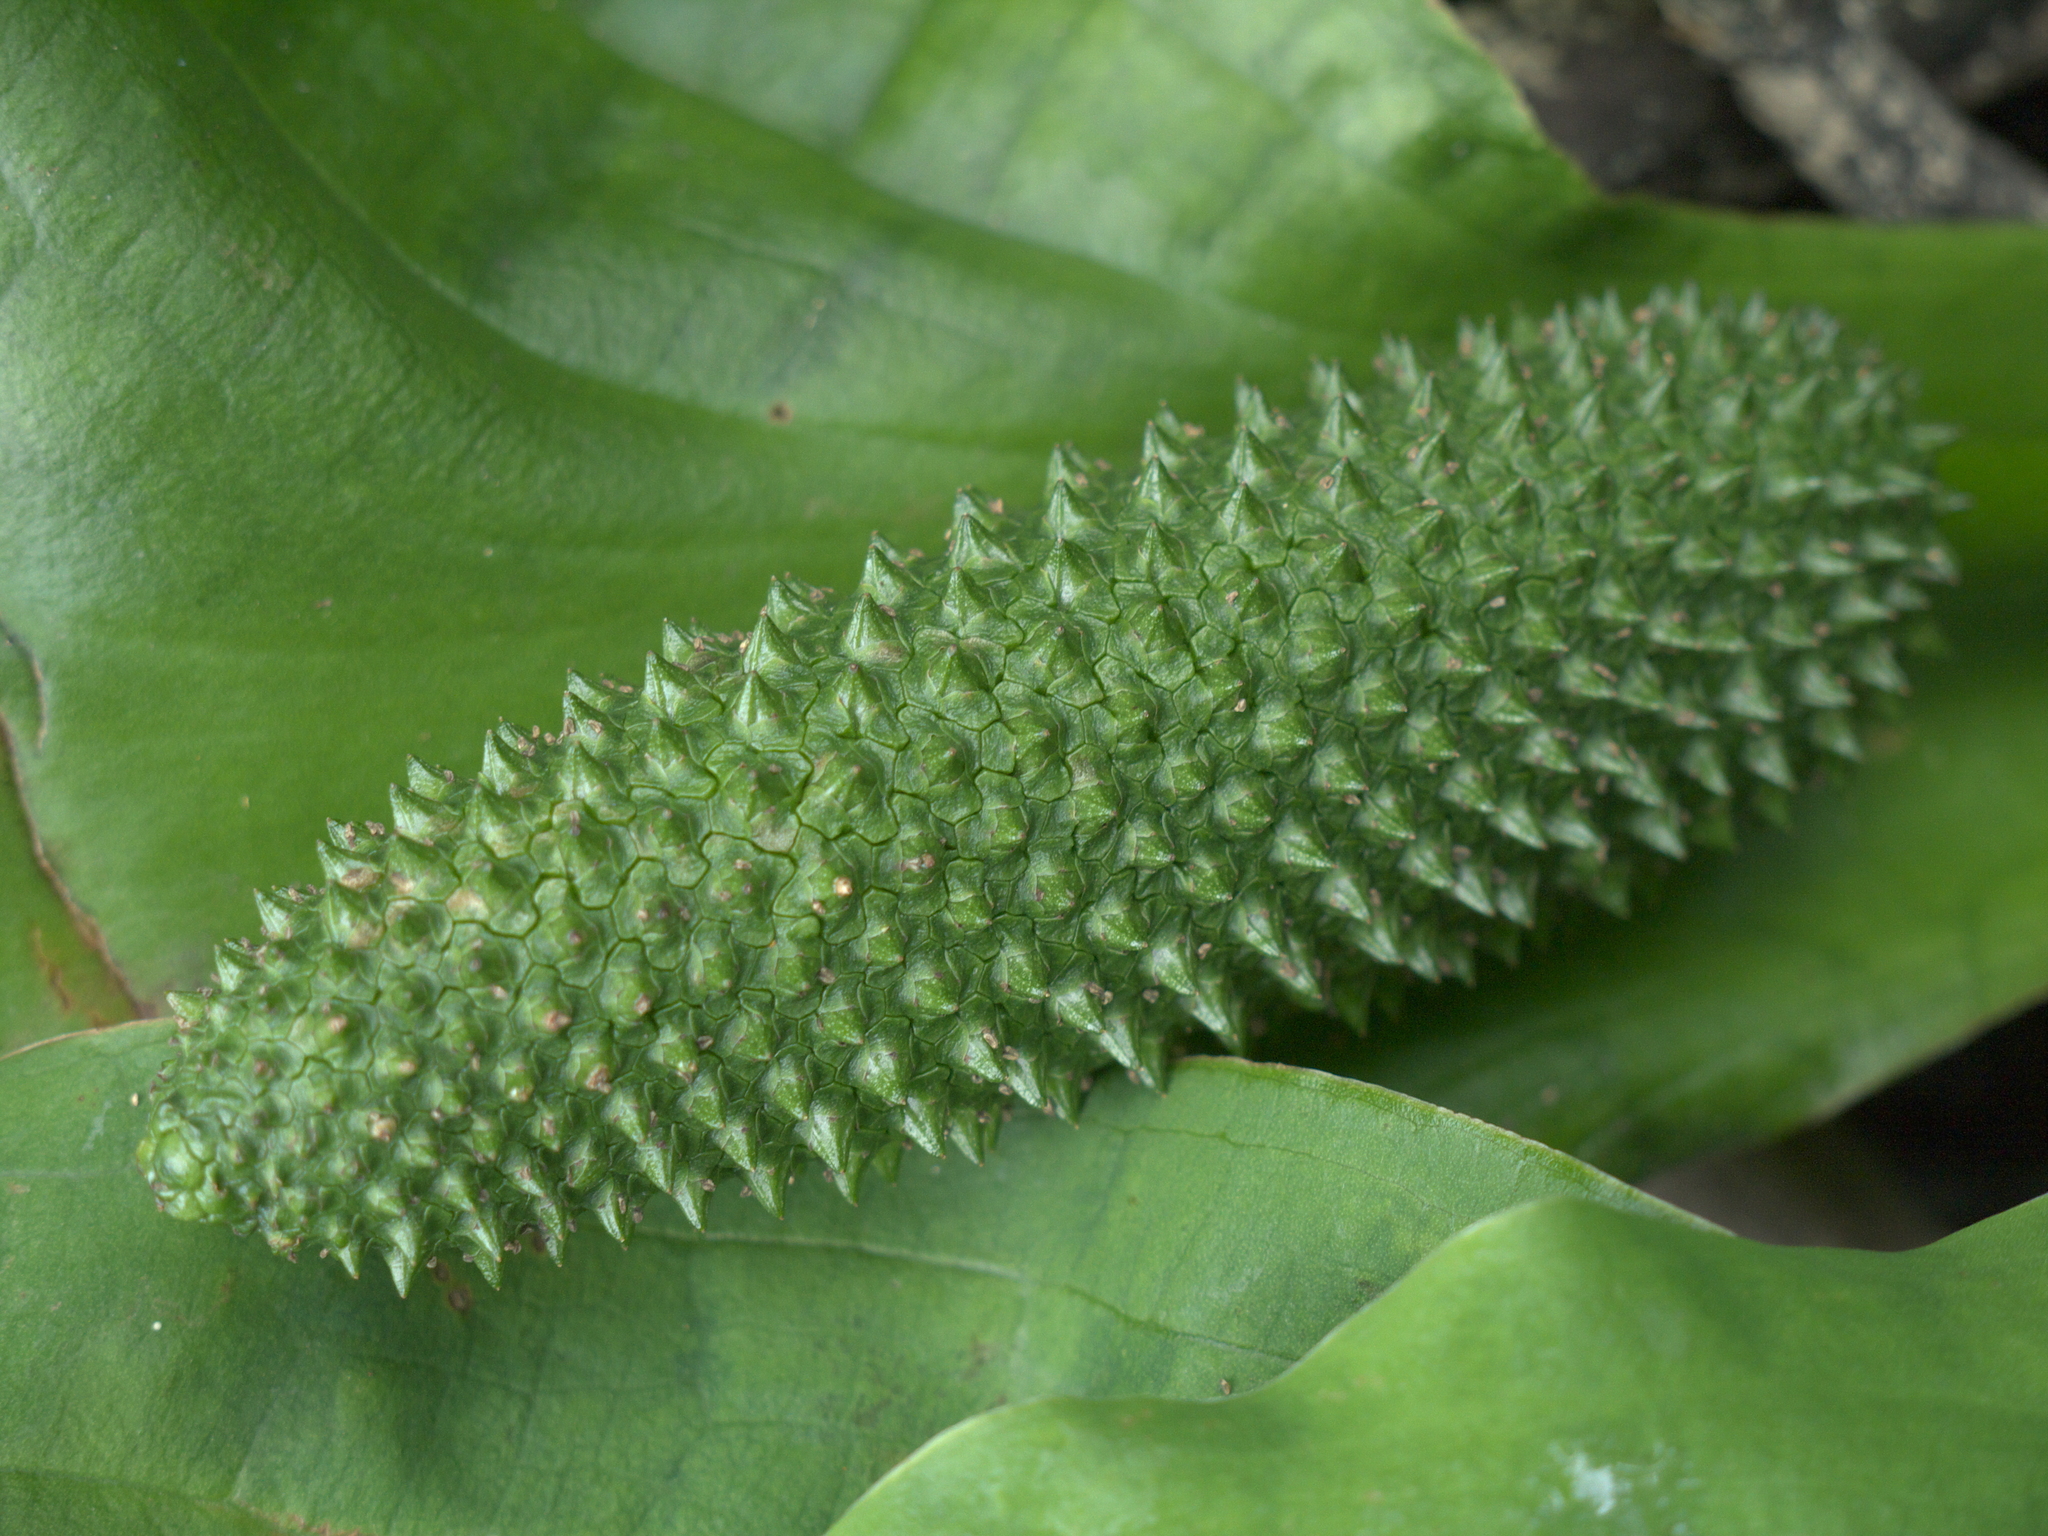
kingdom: Plantae
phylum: Tracheophyta
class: Liliopsida
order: Alismatales
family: Araceae
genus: Lysichiton
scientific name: Lysichiton americanus
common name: American skunk cabbage
